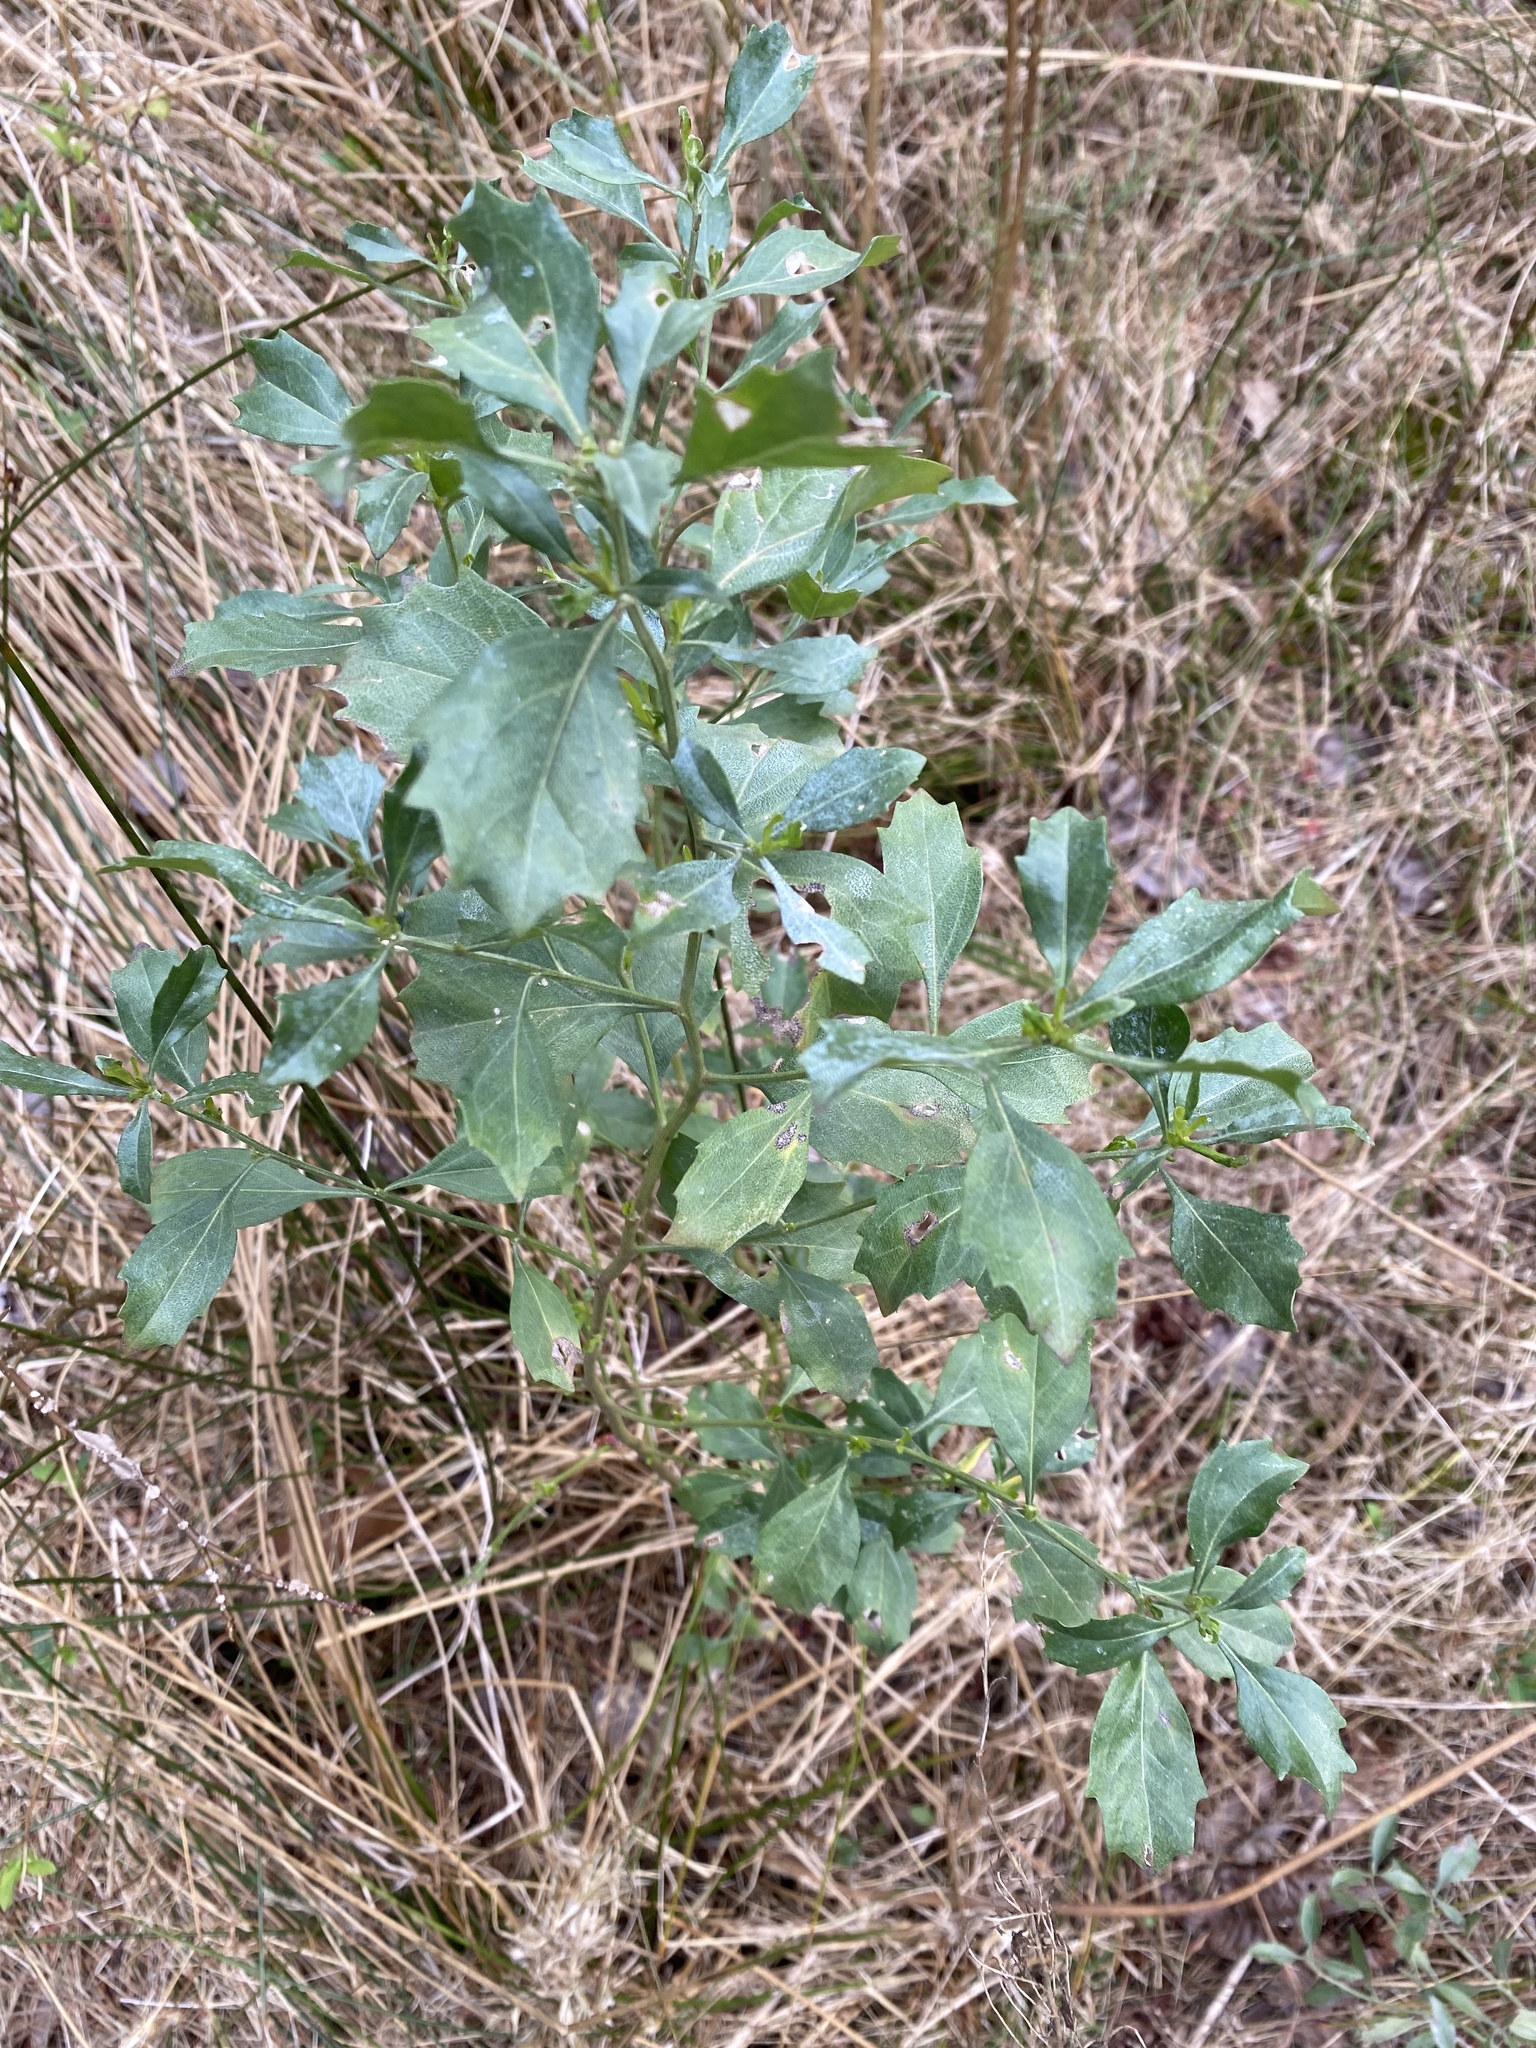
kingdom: Plantae
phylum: Tracheophyta
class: Magnoliopsida
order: Asterales
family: Asteraceae
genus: Baccharis
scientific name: Baccharis halimifolia
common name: Eastern baccharis
